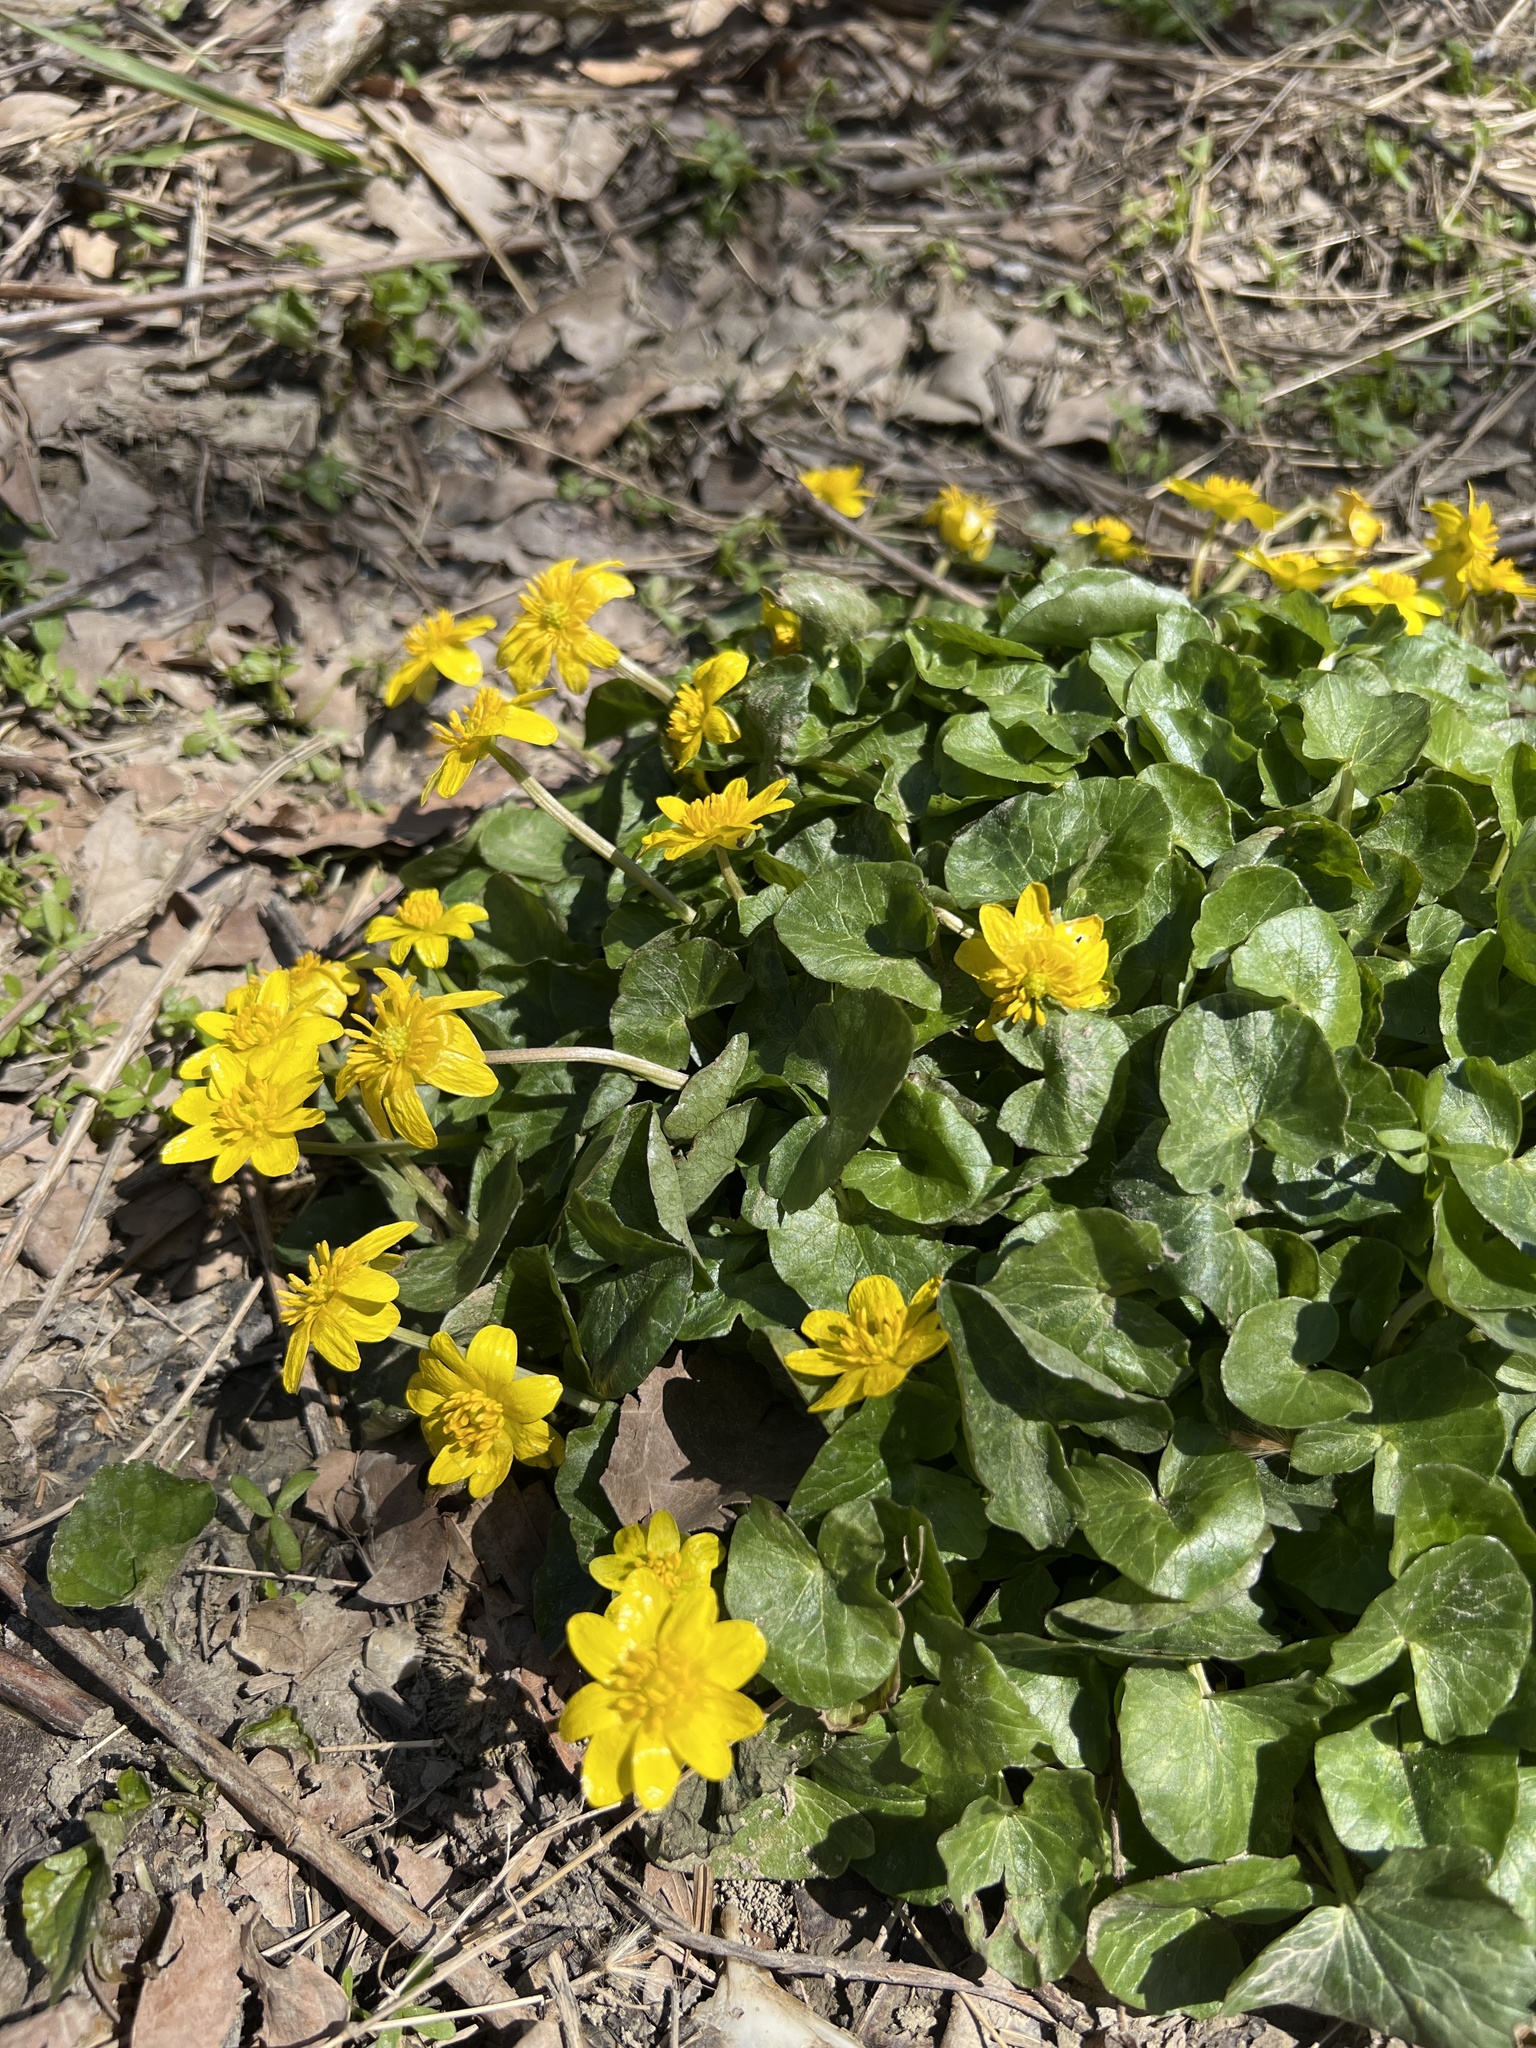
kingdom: Plantae
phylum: Tracheophyta
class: Magnoliopsida
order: Ranunculales
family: Ranunculaceae
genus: Ficaria
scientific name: Ficaria verna
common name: Lesser celandine
